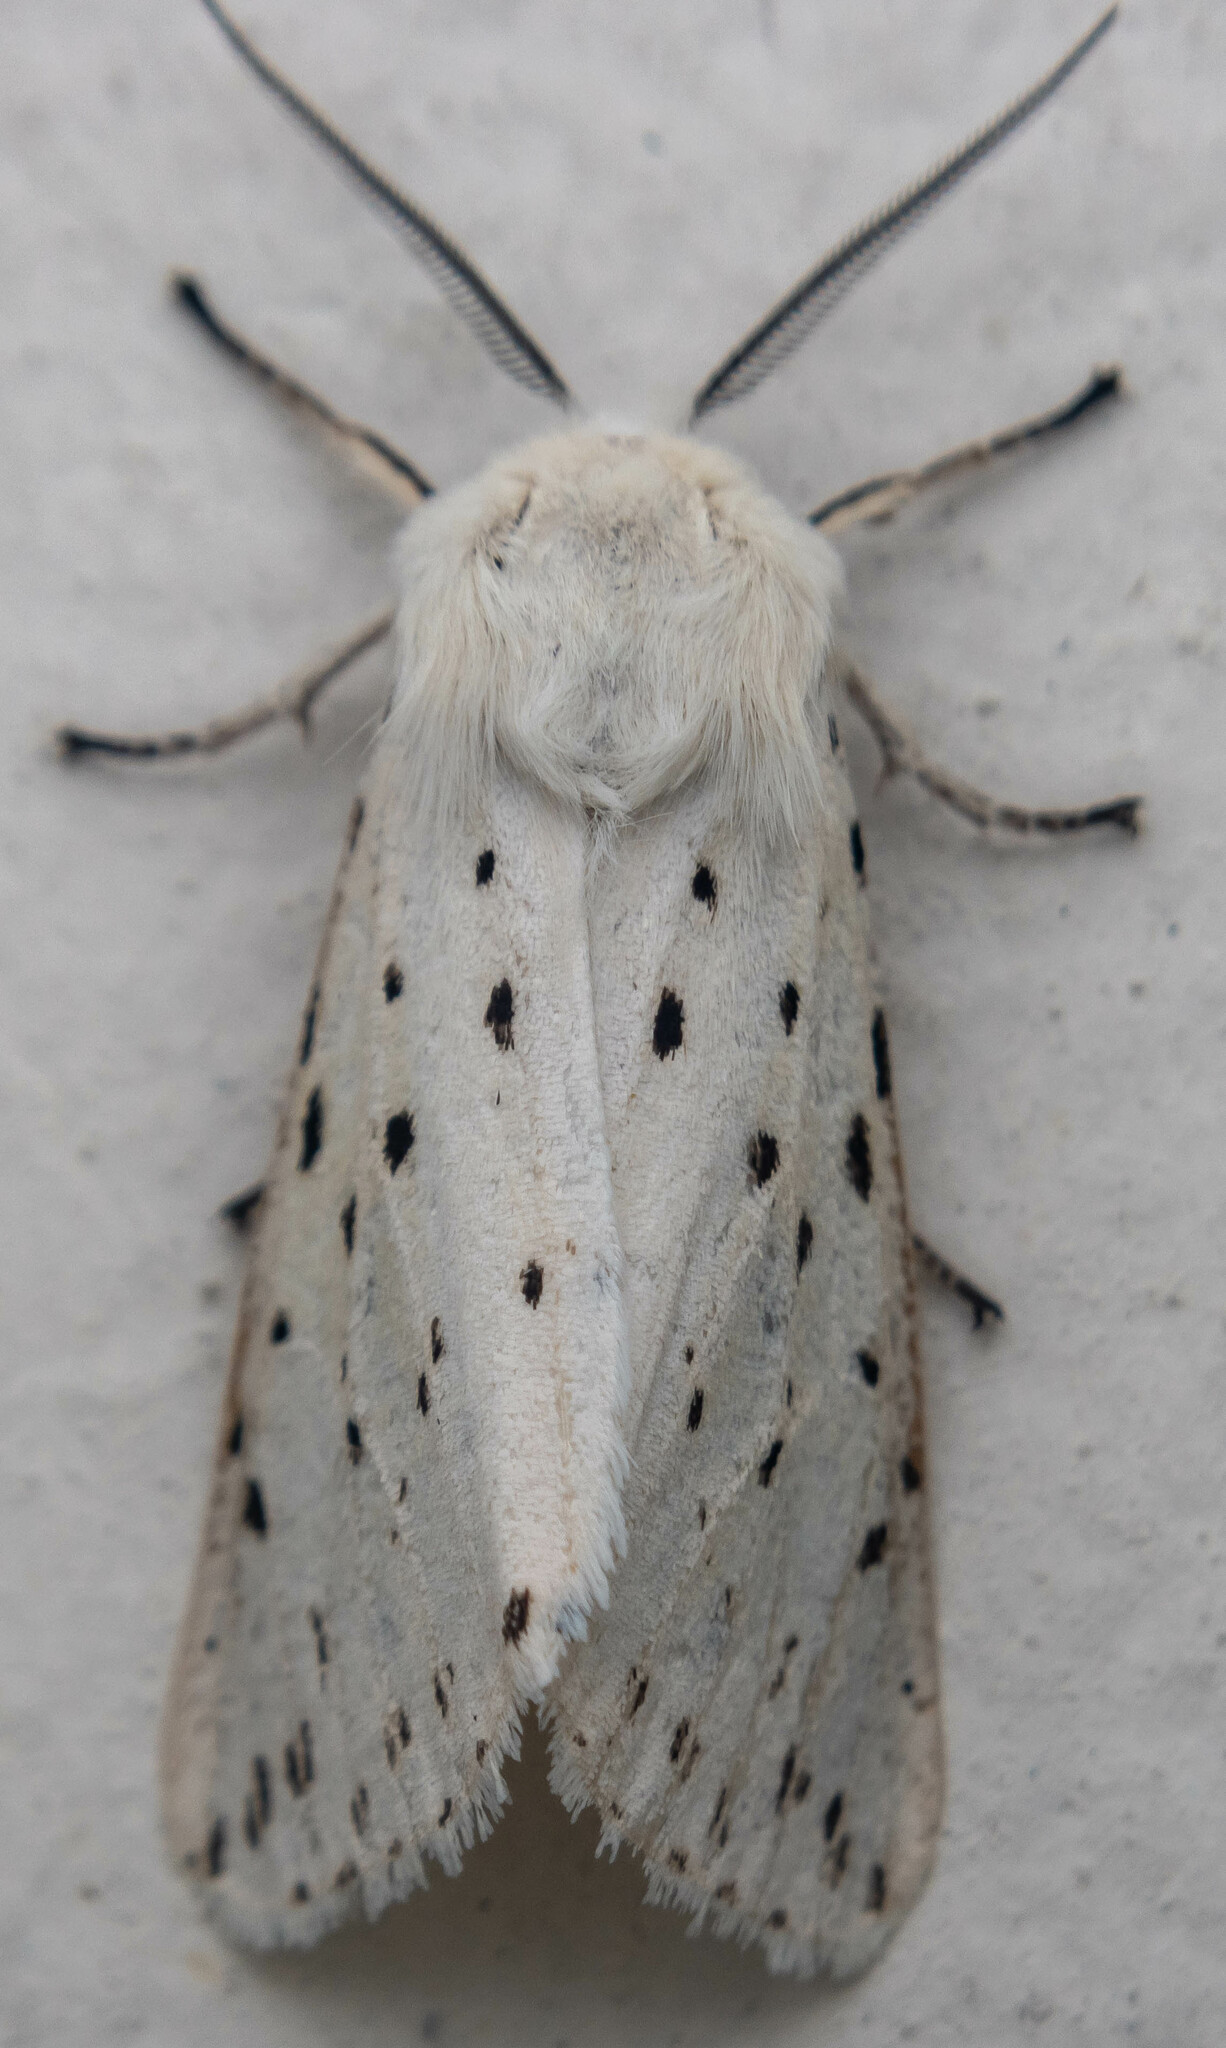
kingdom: Animalia
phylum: Arthropoda
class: Insecta
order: Lepidoptera
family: Erebidae
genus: Spilosoma
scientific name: Spilosoma lubricipeda
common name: White ermine
